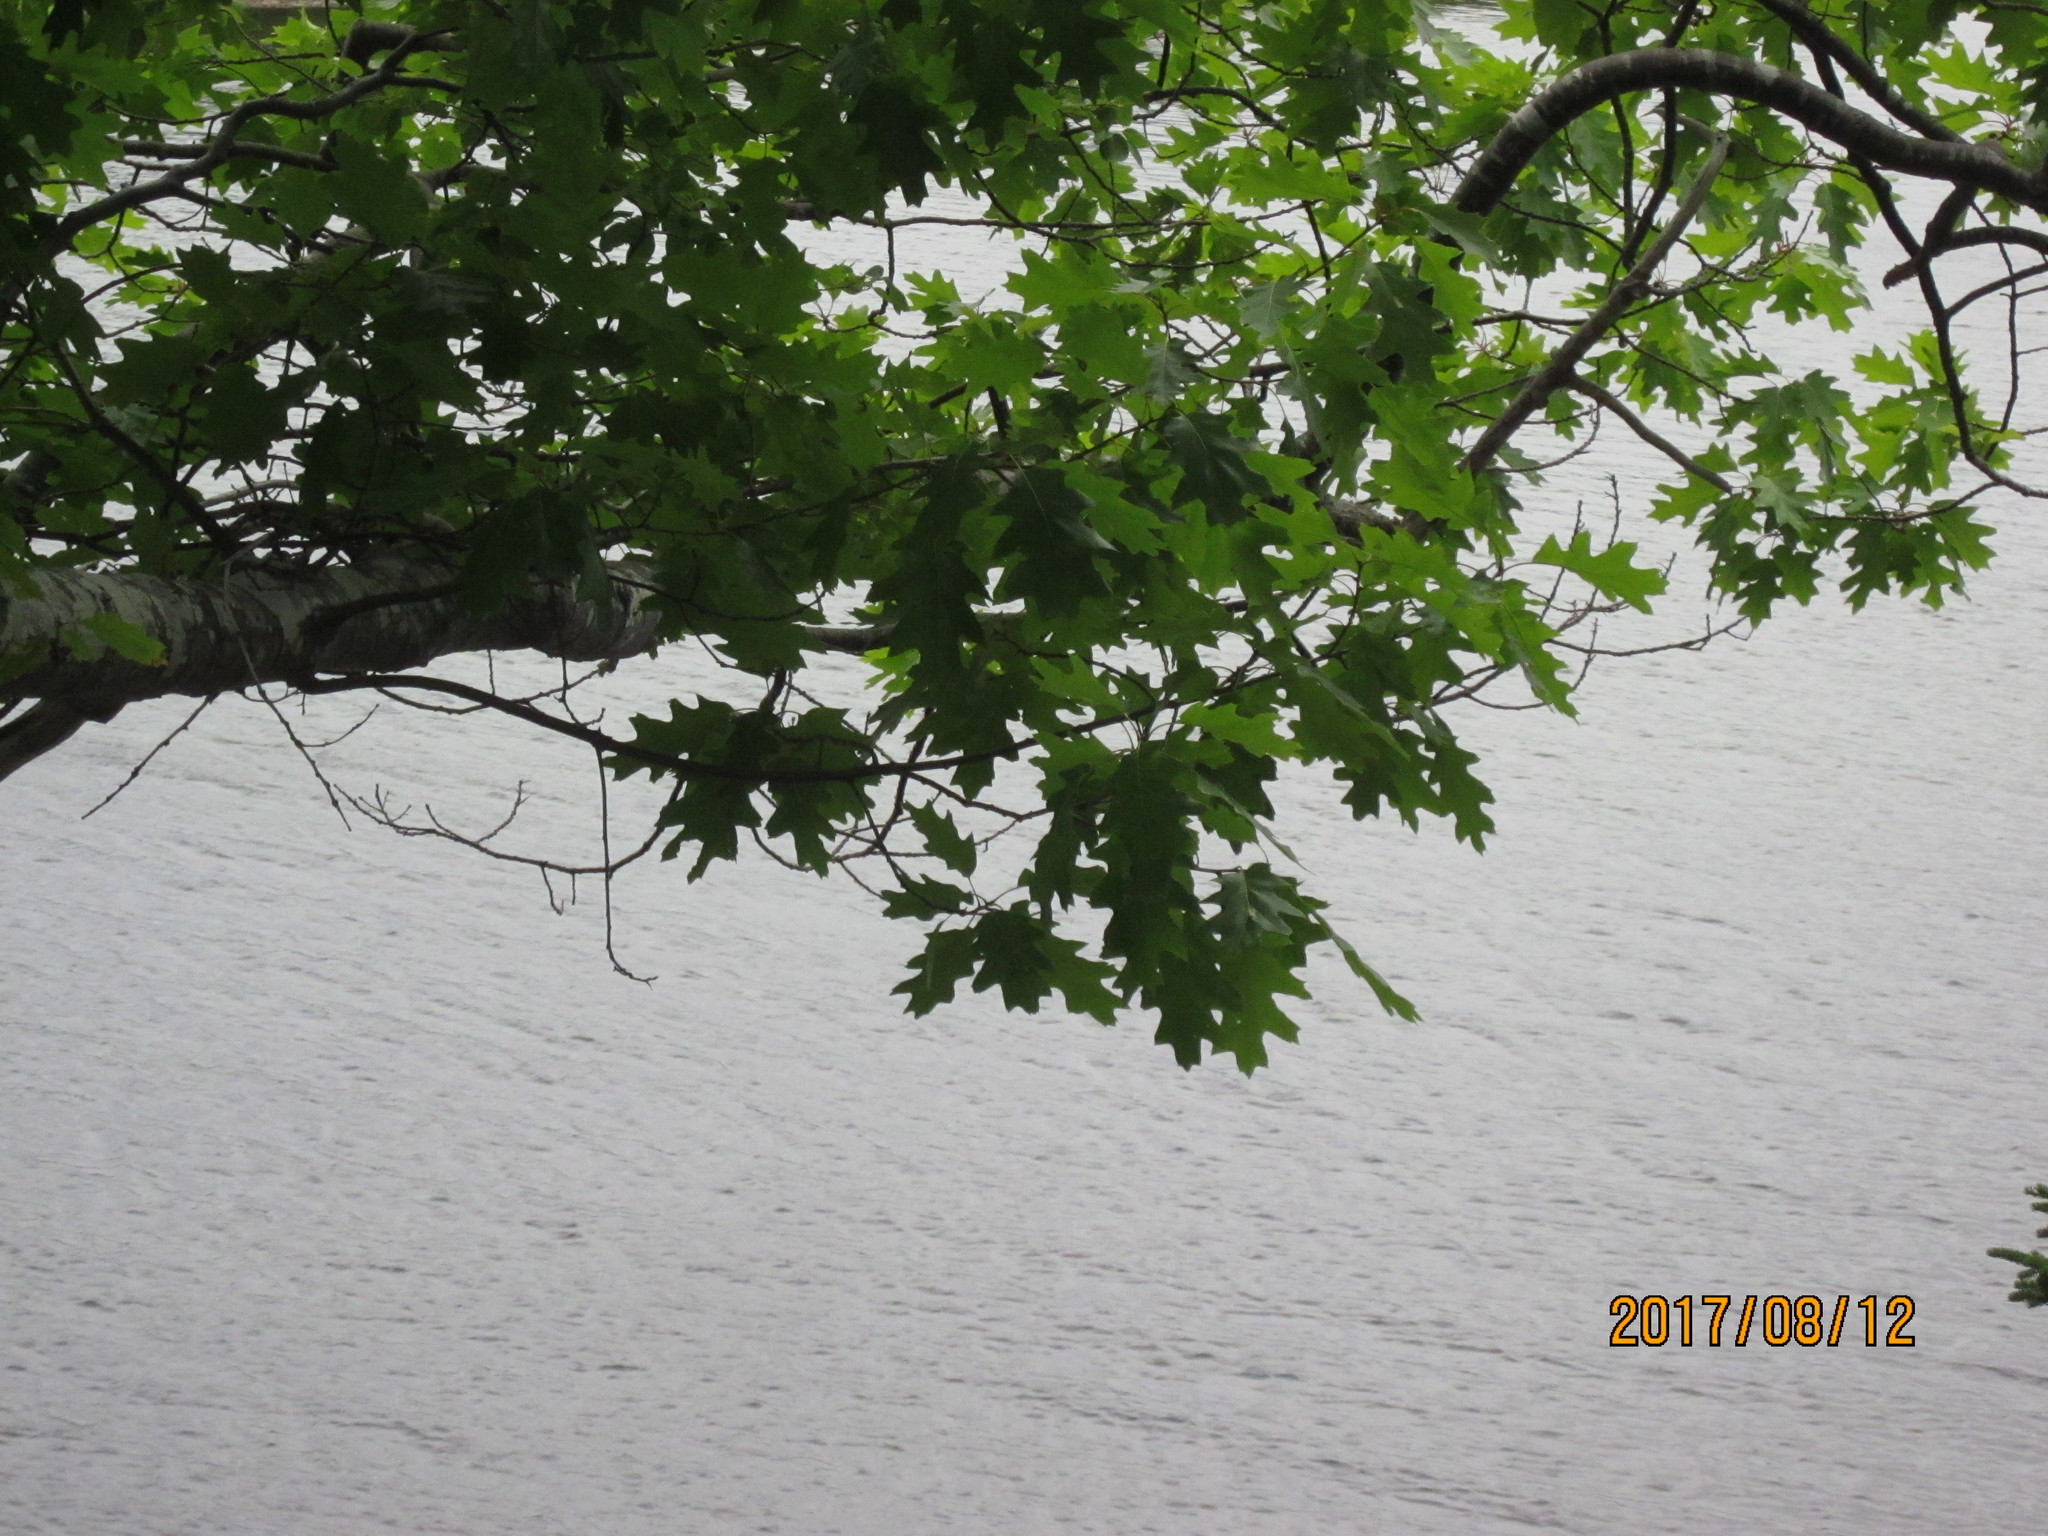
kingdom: Plantae
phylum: Tracheophyta
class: Magnoliopsida
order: Fagales
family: Fagaceae
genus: Quercus
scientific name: Quercus rubra
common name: Red oak
